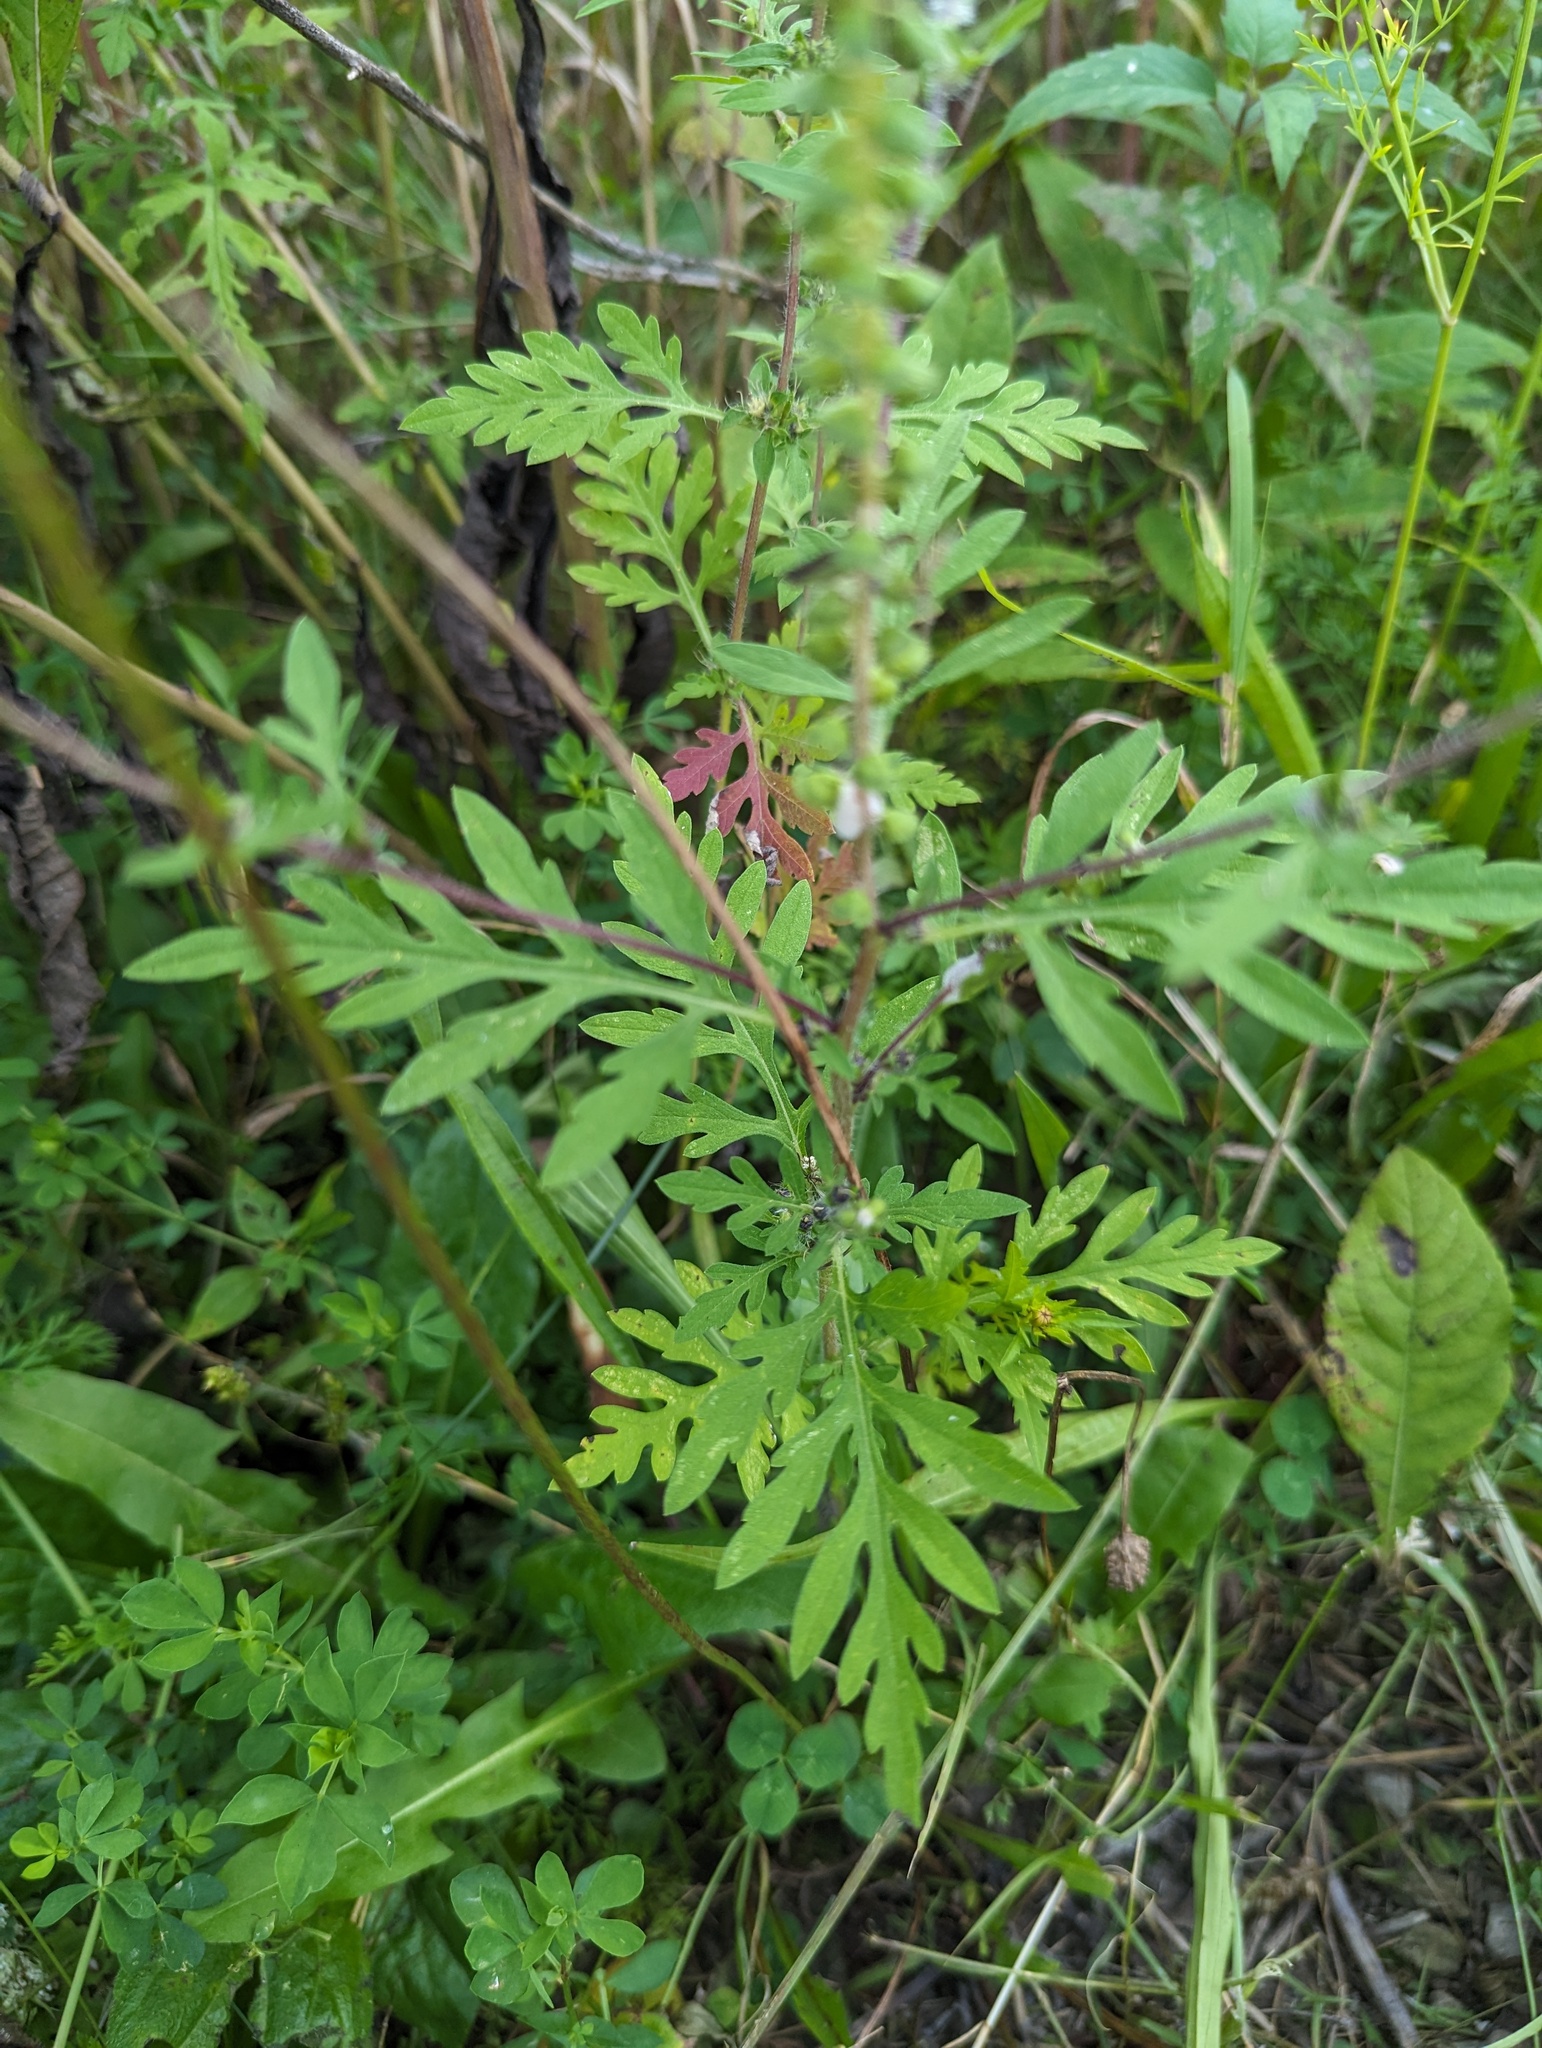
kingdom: Plantae
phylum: Tracheophyta
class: Magnoliopsida
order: Asterales
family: Asteraceae
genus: Ambrosia
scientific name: Ambrosia artemisiifolia
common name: Annual ragweed
